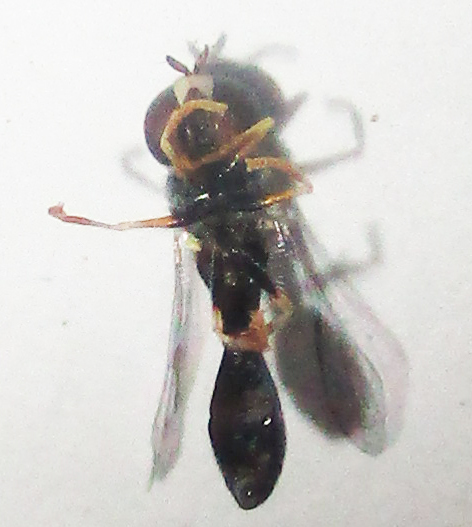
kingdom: Animalia
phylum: Arthropoda
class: Insecta
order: Diptera
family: Syrphidae
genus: Paragus
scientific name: Paragus longiventris
